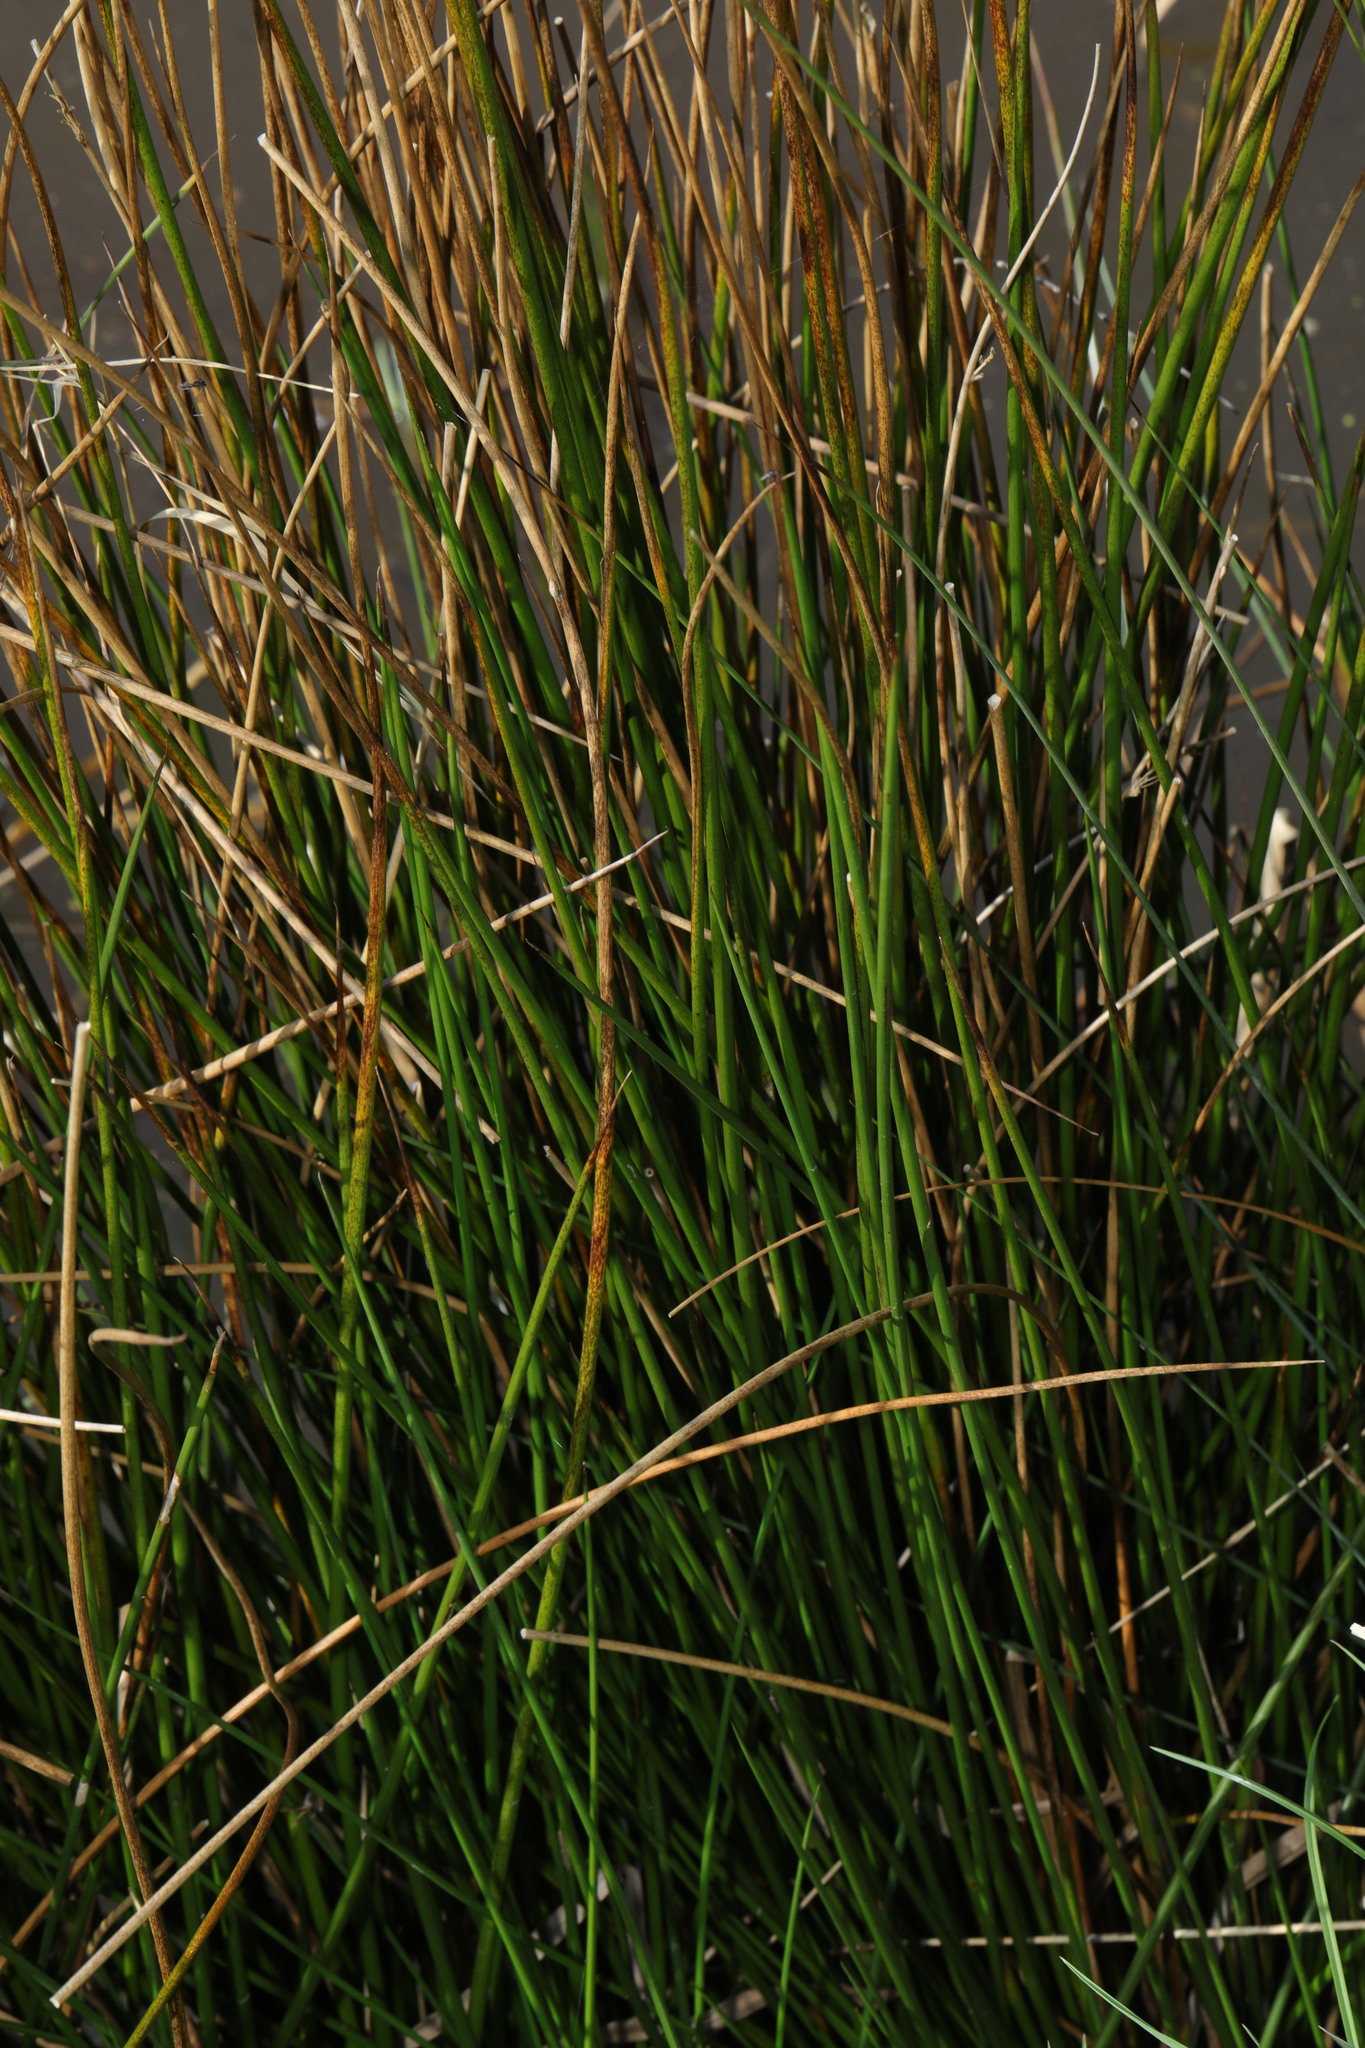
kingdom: Plantae
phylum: Tracheophyta
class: Liliopsida
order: Poales
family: Juncaceae
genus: Juncus
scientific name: Juncus effusus
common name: Soft rush
